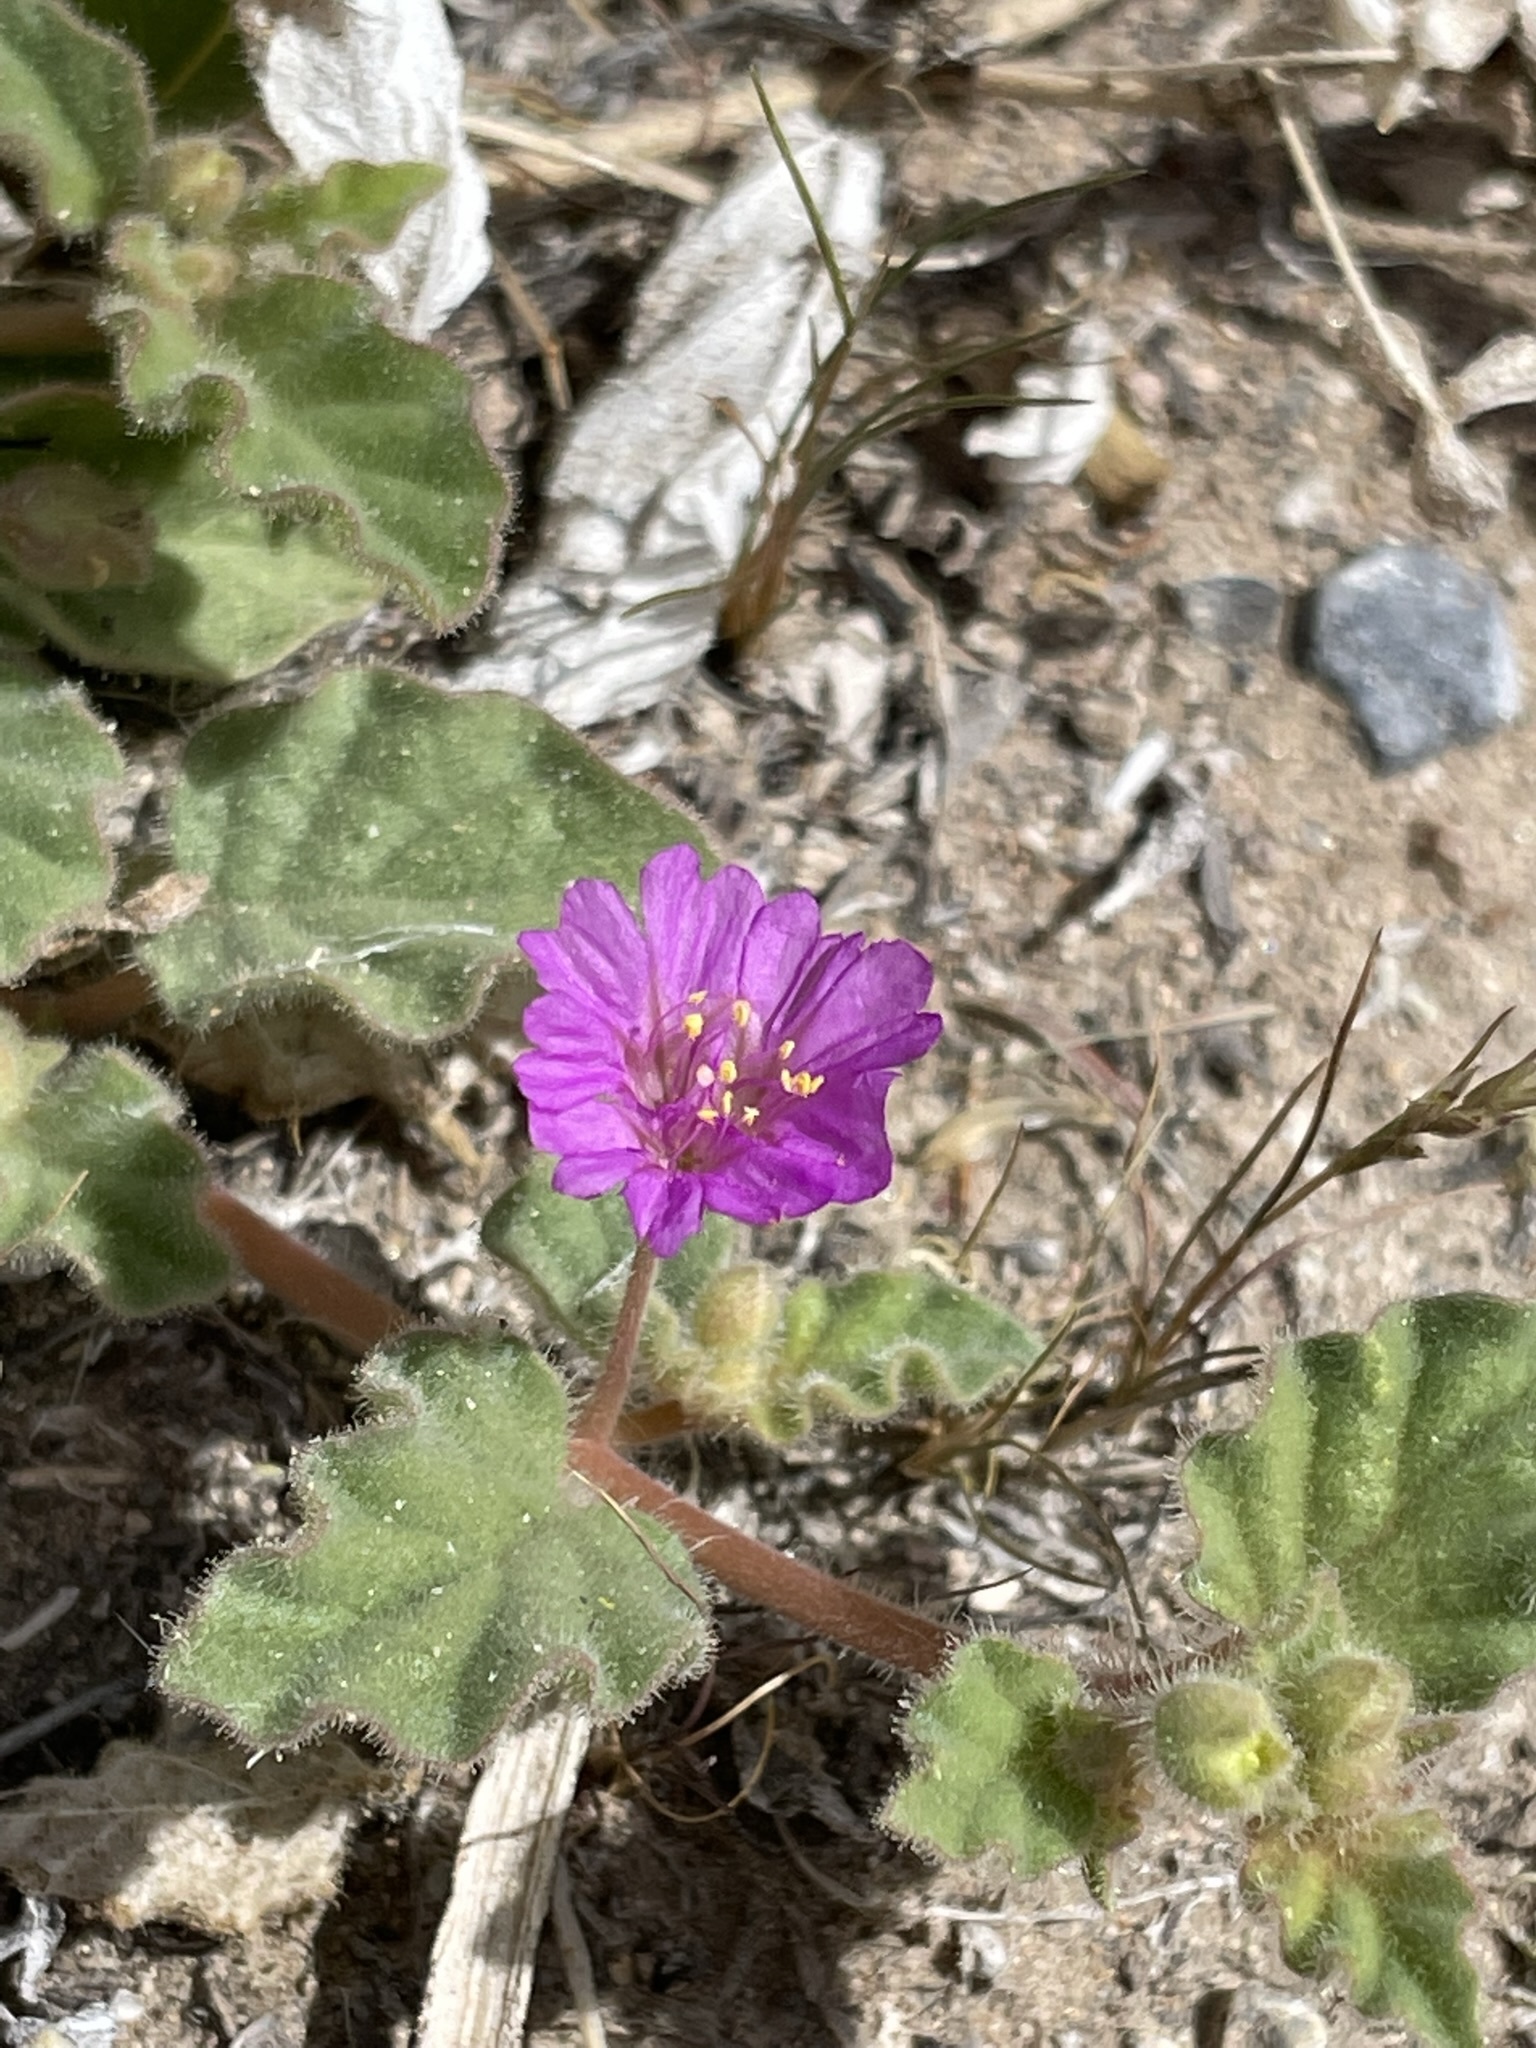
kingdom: Plantae
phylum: Tracheophyta
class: Magnoliopsida
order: Caryophyllales
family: Nyctaginaceae
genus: Allionia
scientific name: Allionia incarnata
